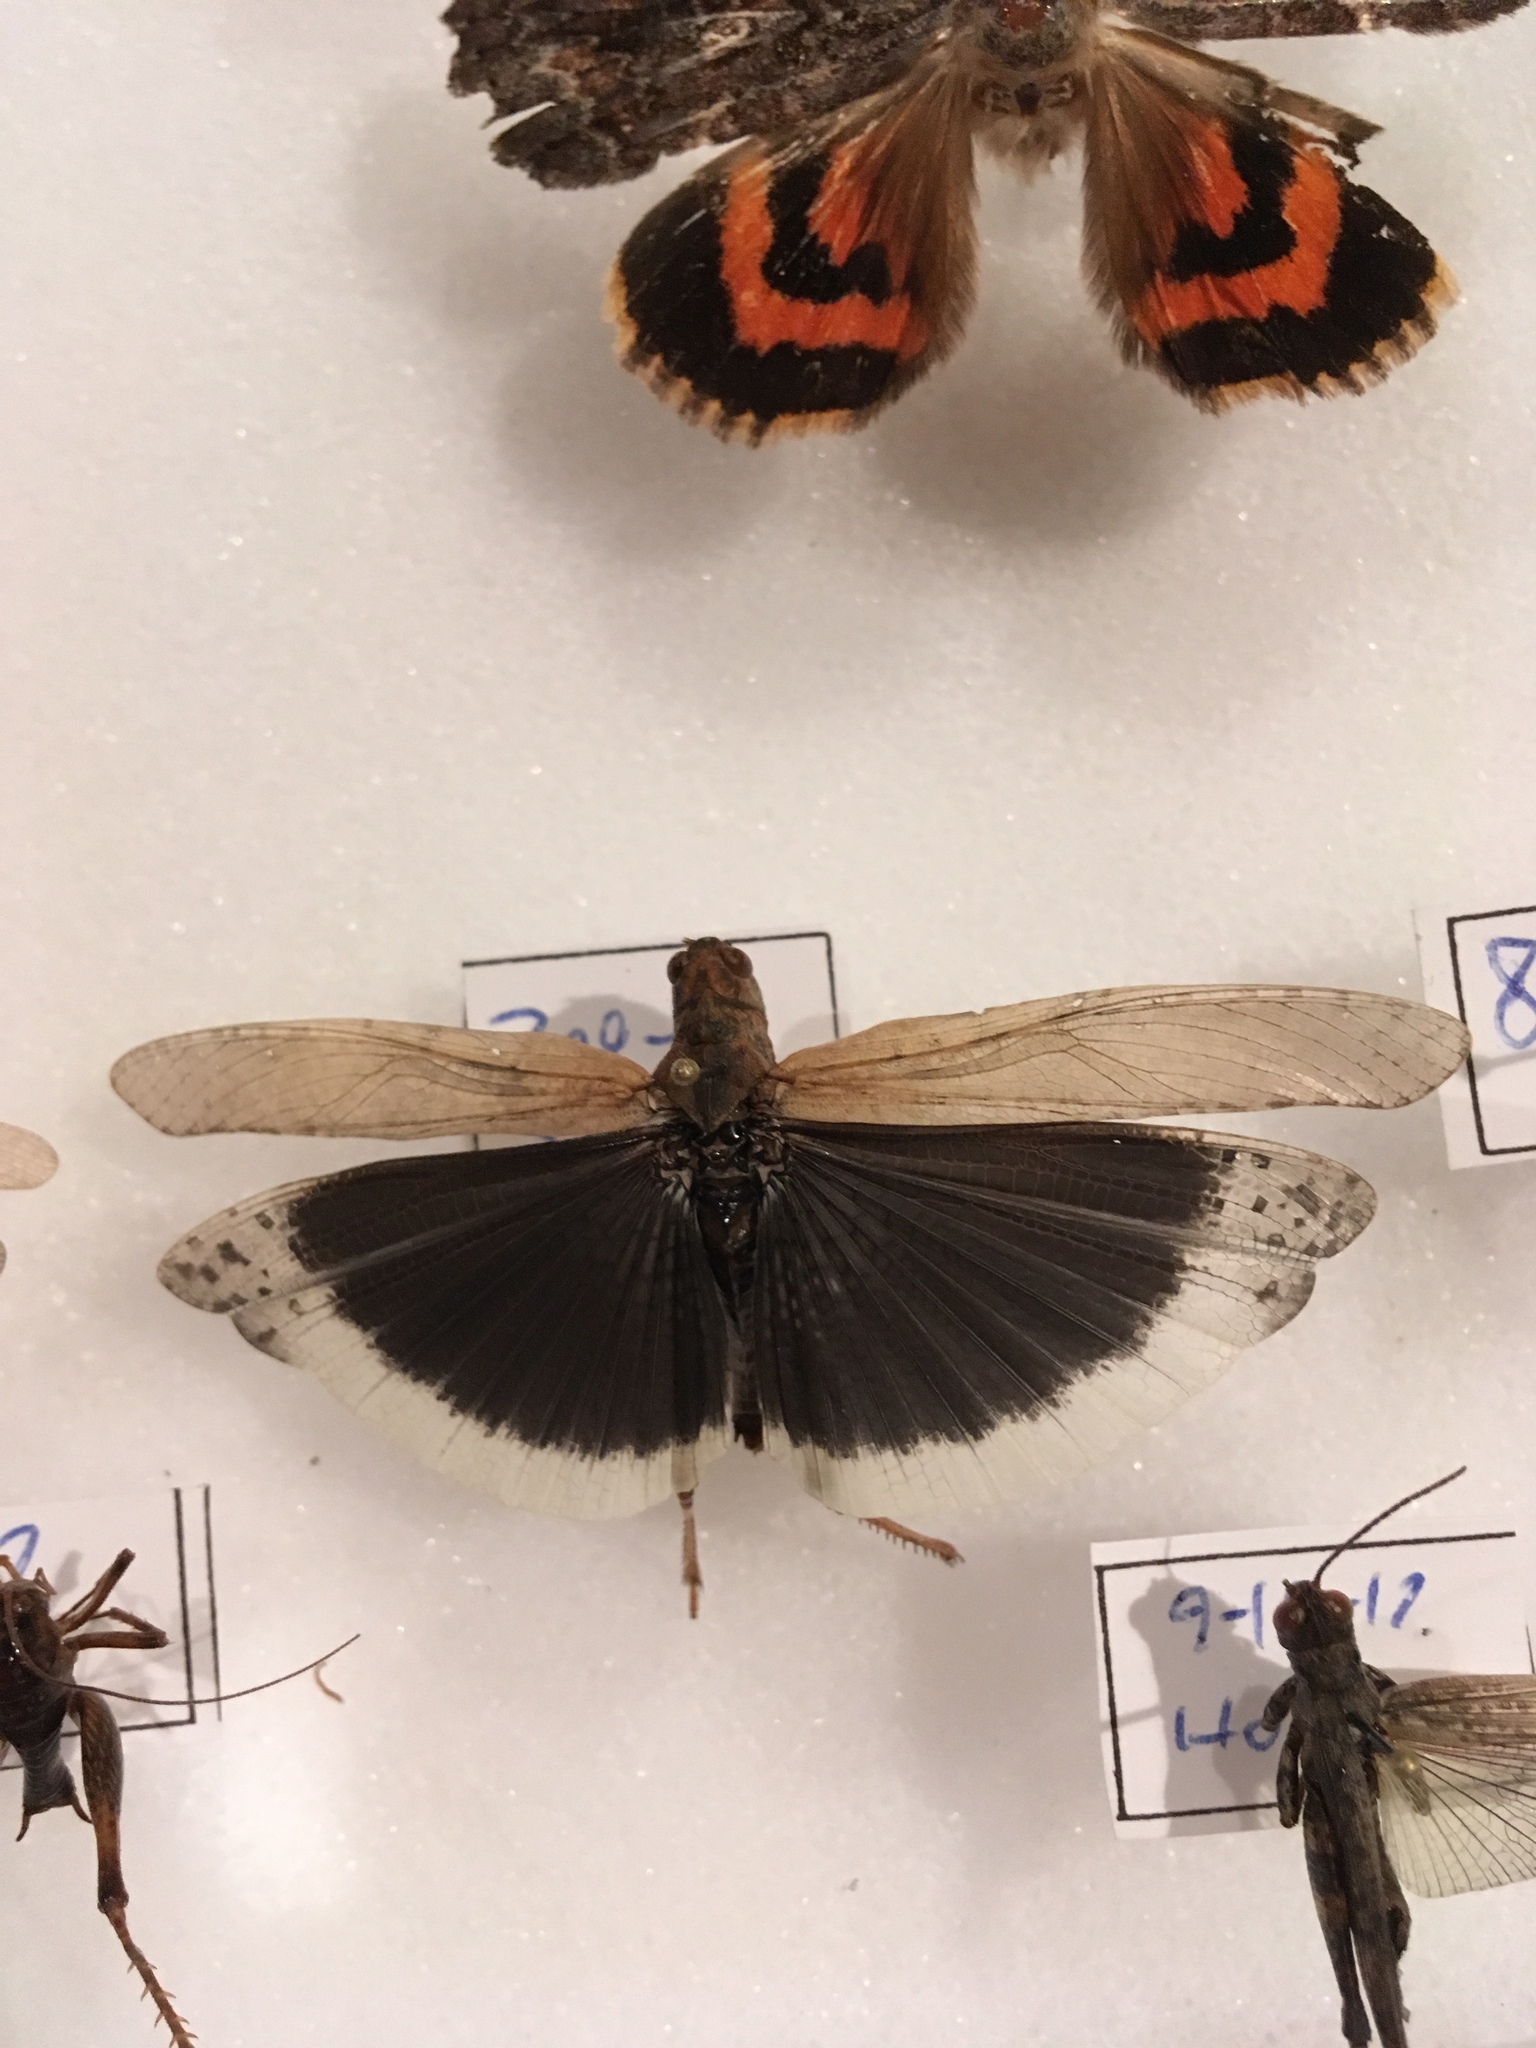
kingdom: Animalia
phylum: Arthropoda
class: Insecta
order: Orthoptera
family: Acrididae
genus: Dissosteira
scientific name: Dissosteira carolina
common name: Carolina grasshopper
